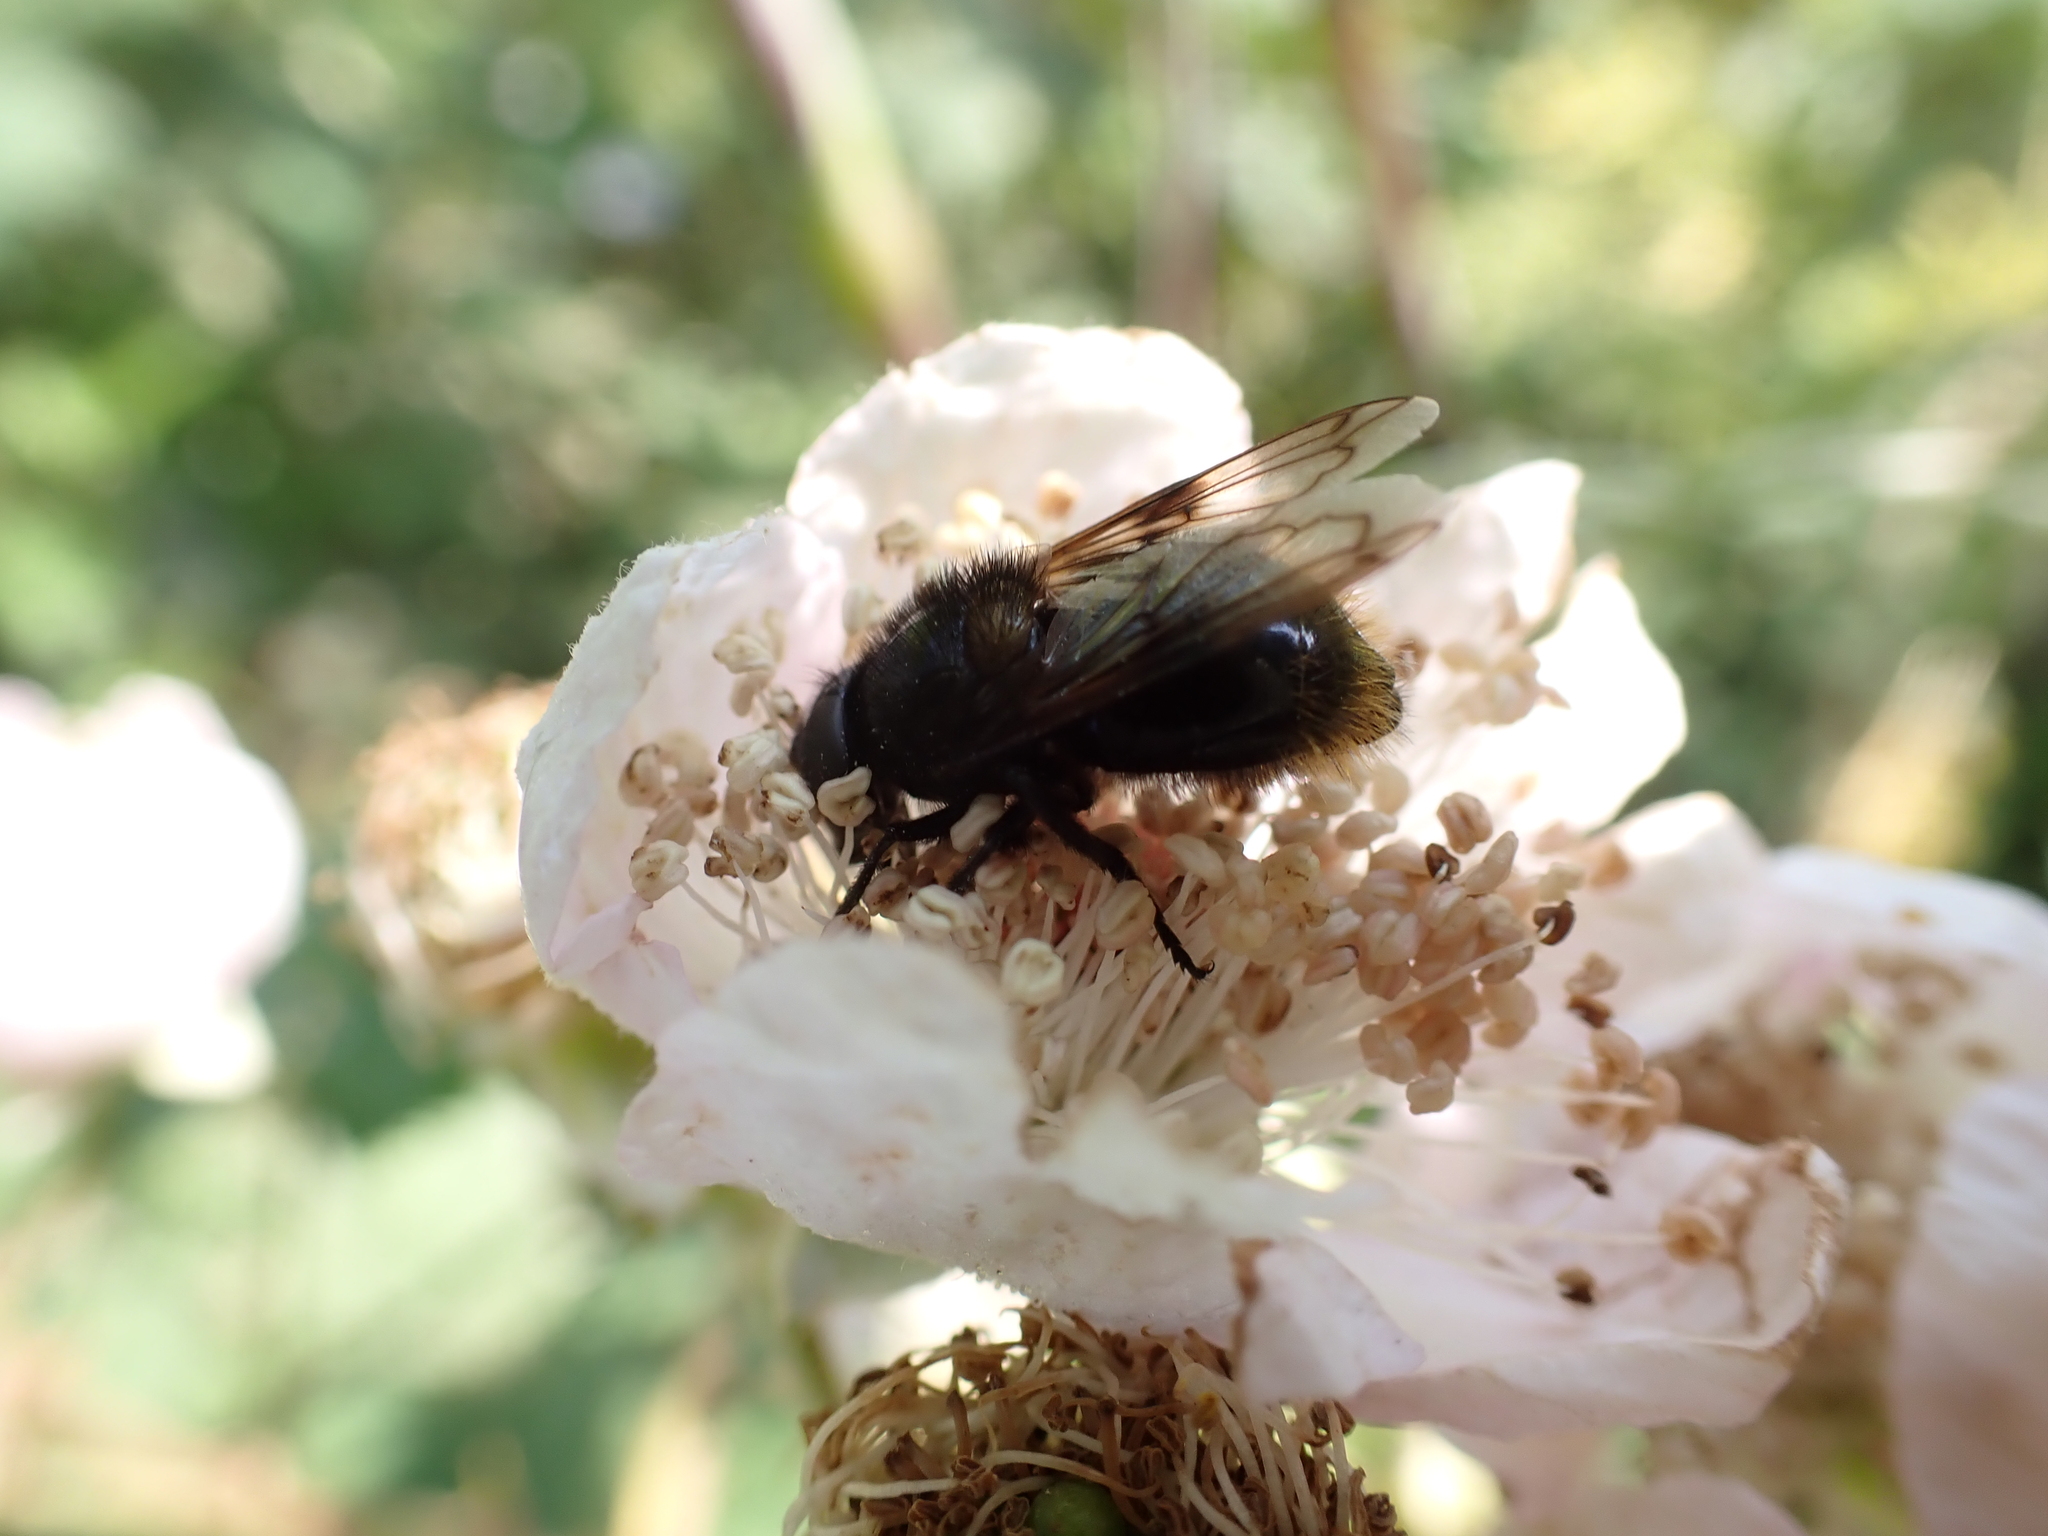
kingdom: Animalia
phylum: Arthropoda
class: Insecta
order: Diptera
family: Syrphidae
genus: Volucella
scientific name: Volucella bombylans
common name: Bumble bee hover fly
